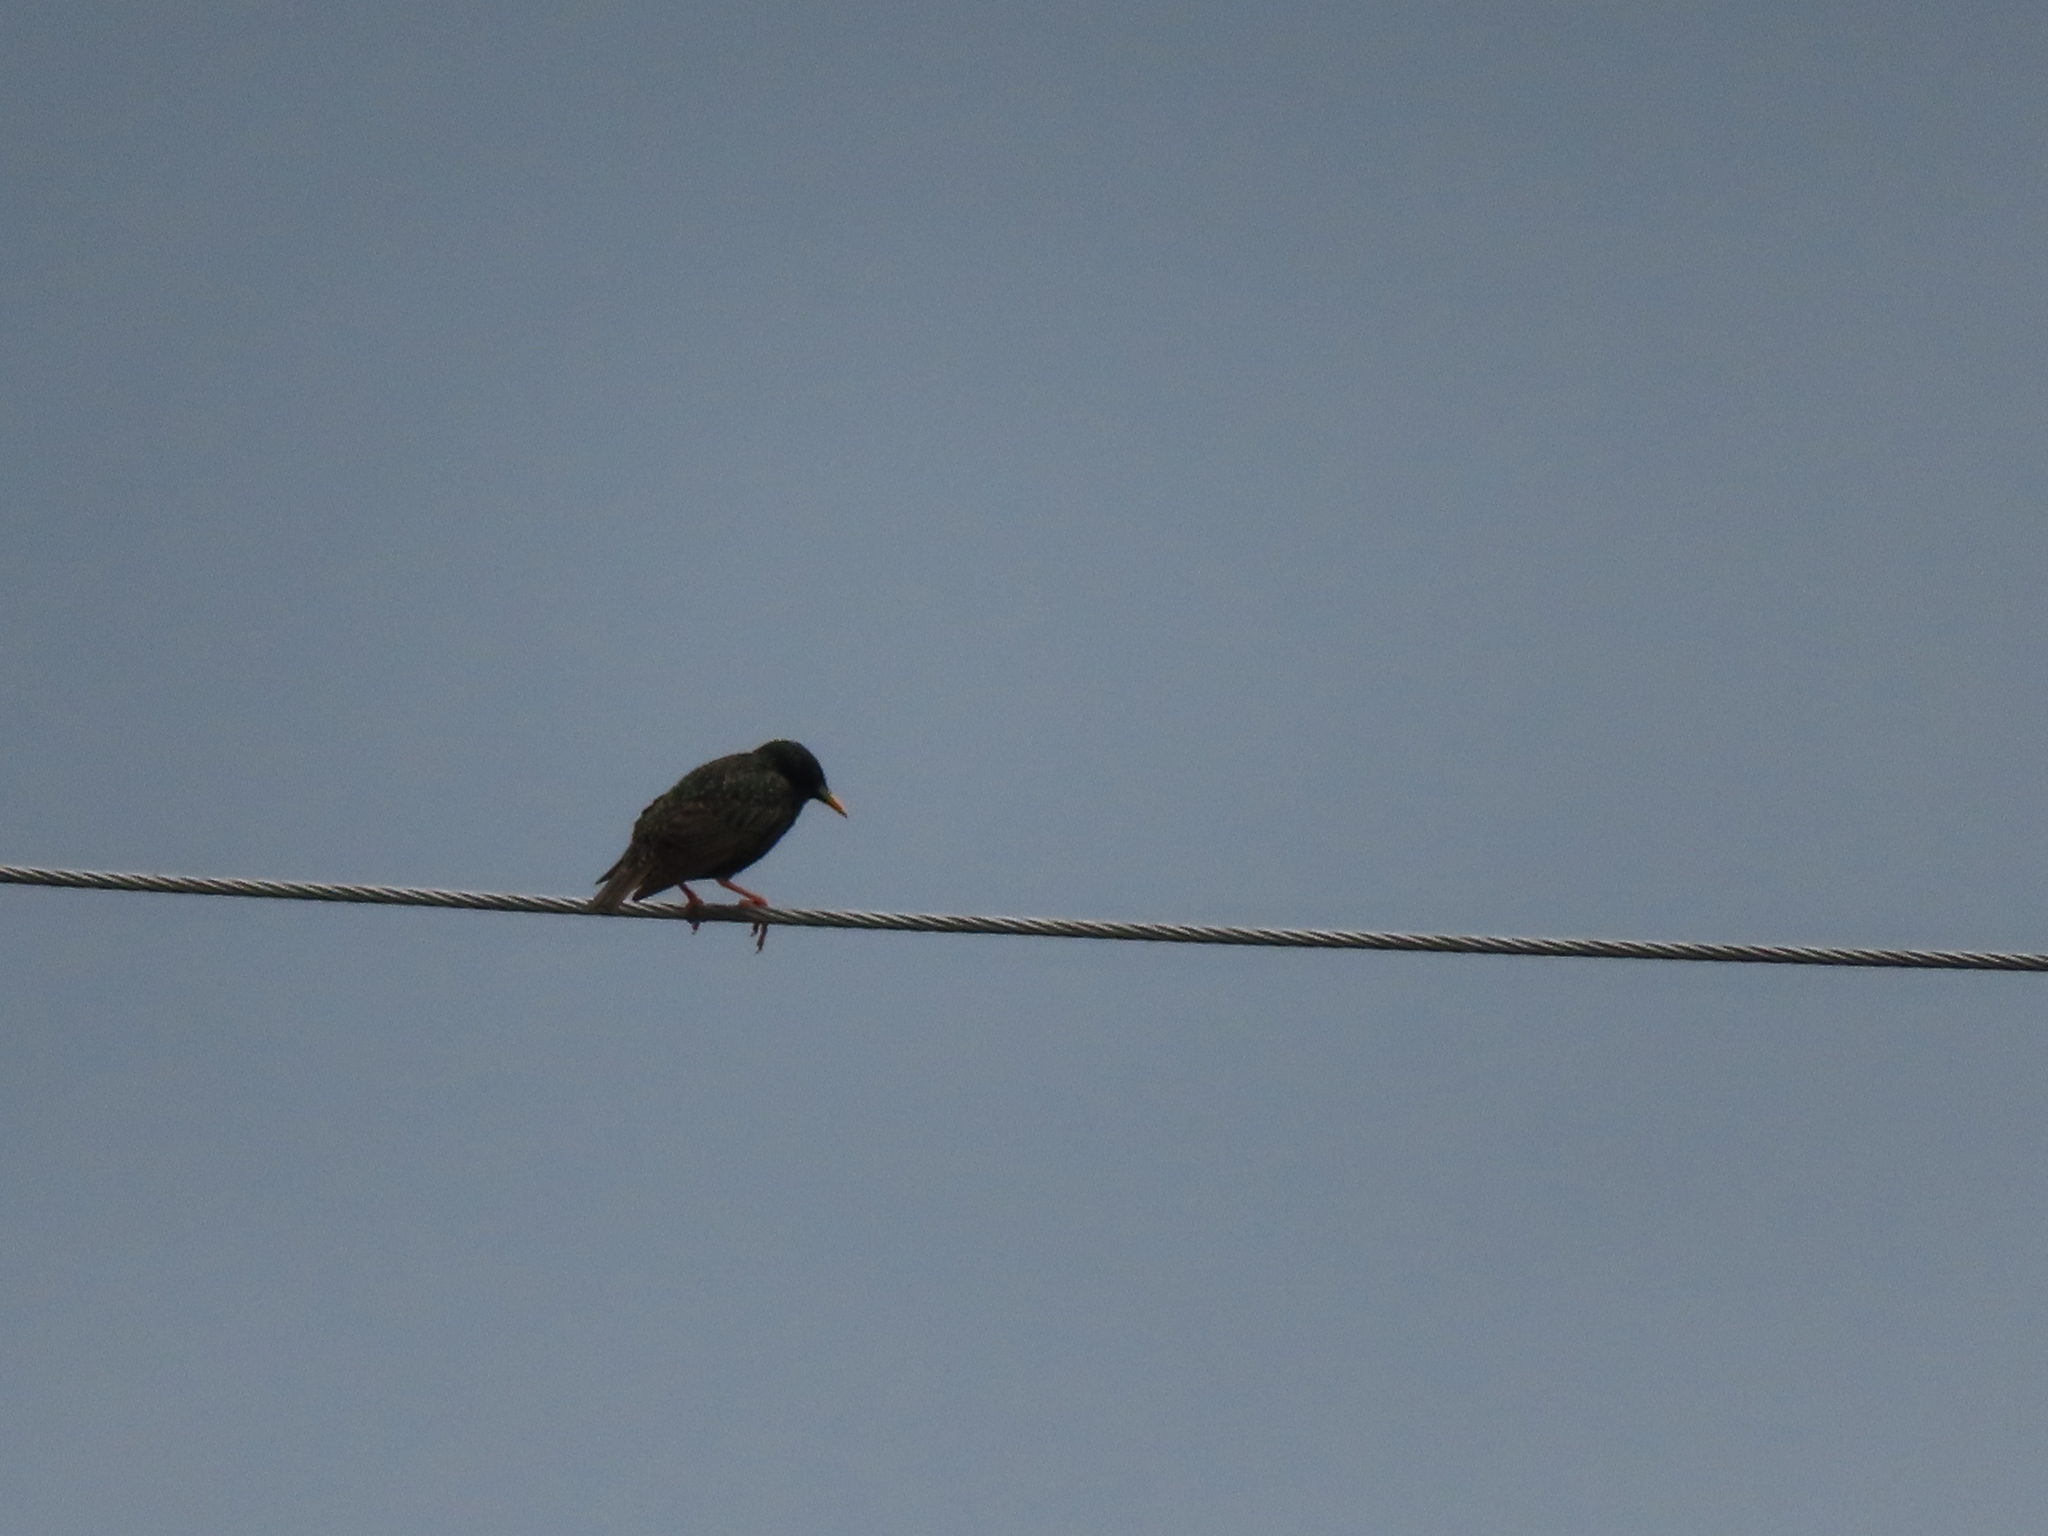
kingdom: Animalia
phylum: Chordata
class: Aves
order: Passeriformes
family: Sturnidae
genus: Sturnus
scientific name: Sturnus vulgaris
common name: Common starling
